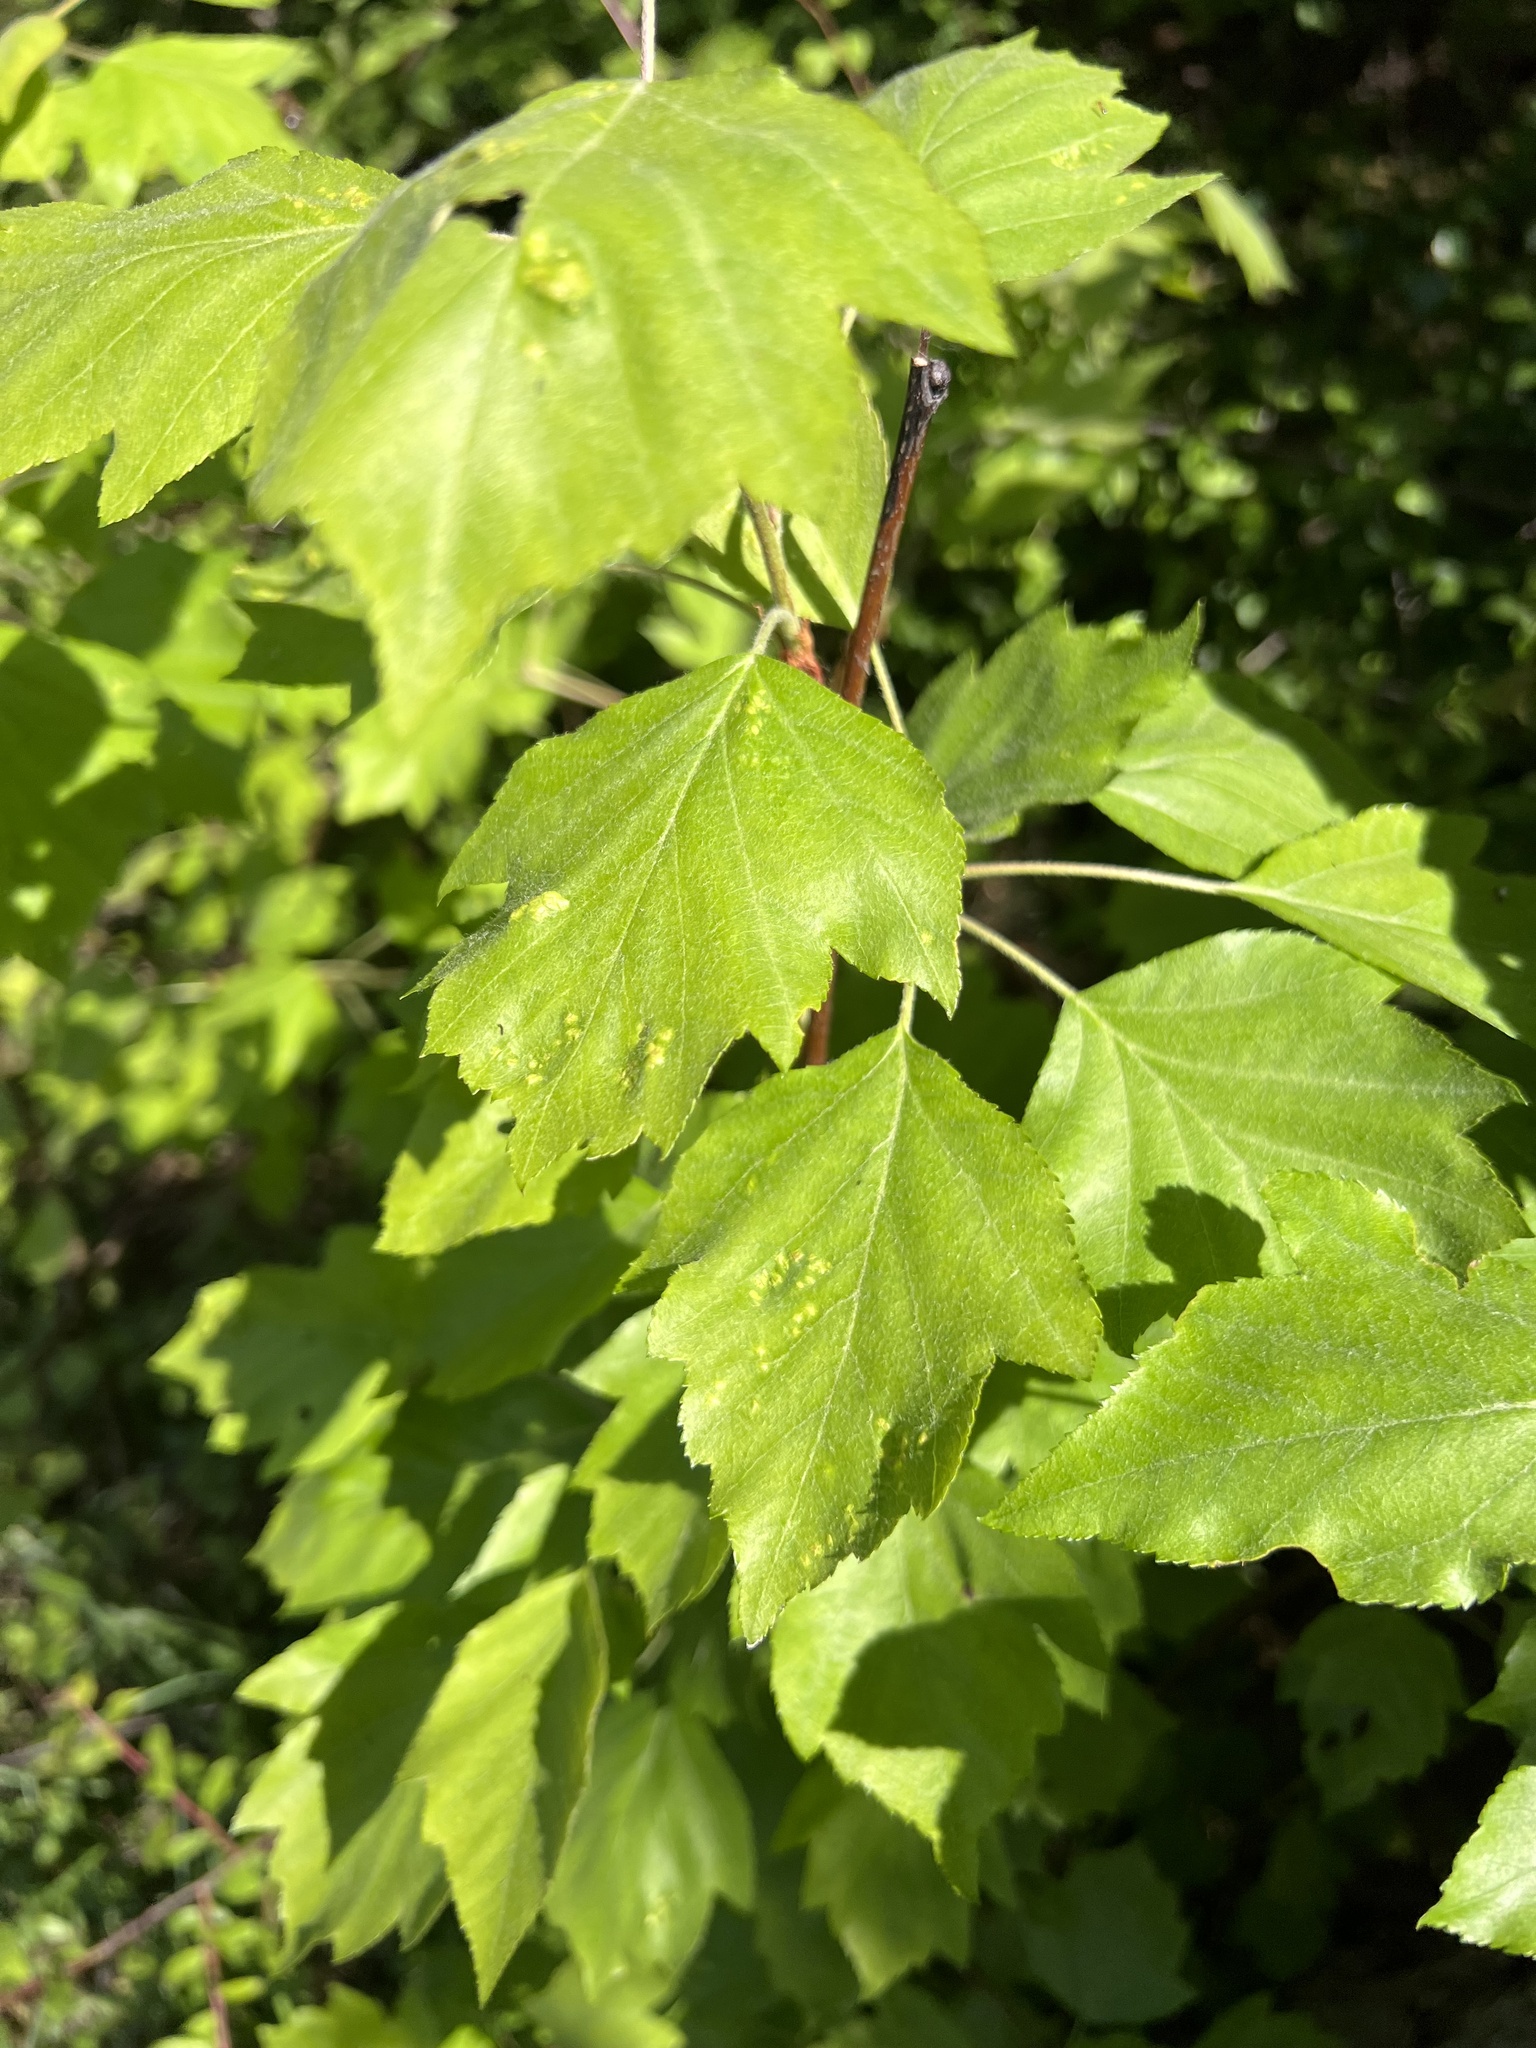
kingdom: Plantae
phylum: Tracheophyta
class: Magnoliopsida
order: Rosales
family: Rosaceae
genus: Torminalis
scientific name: Torminalis glaberrima
